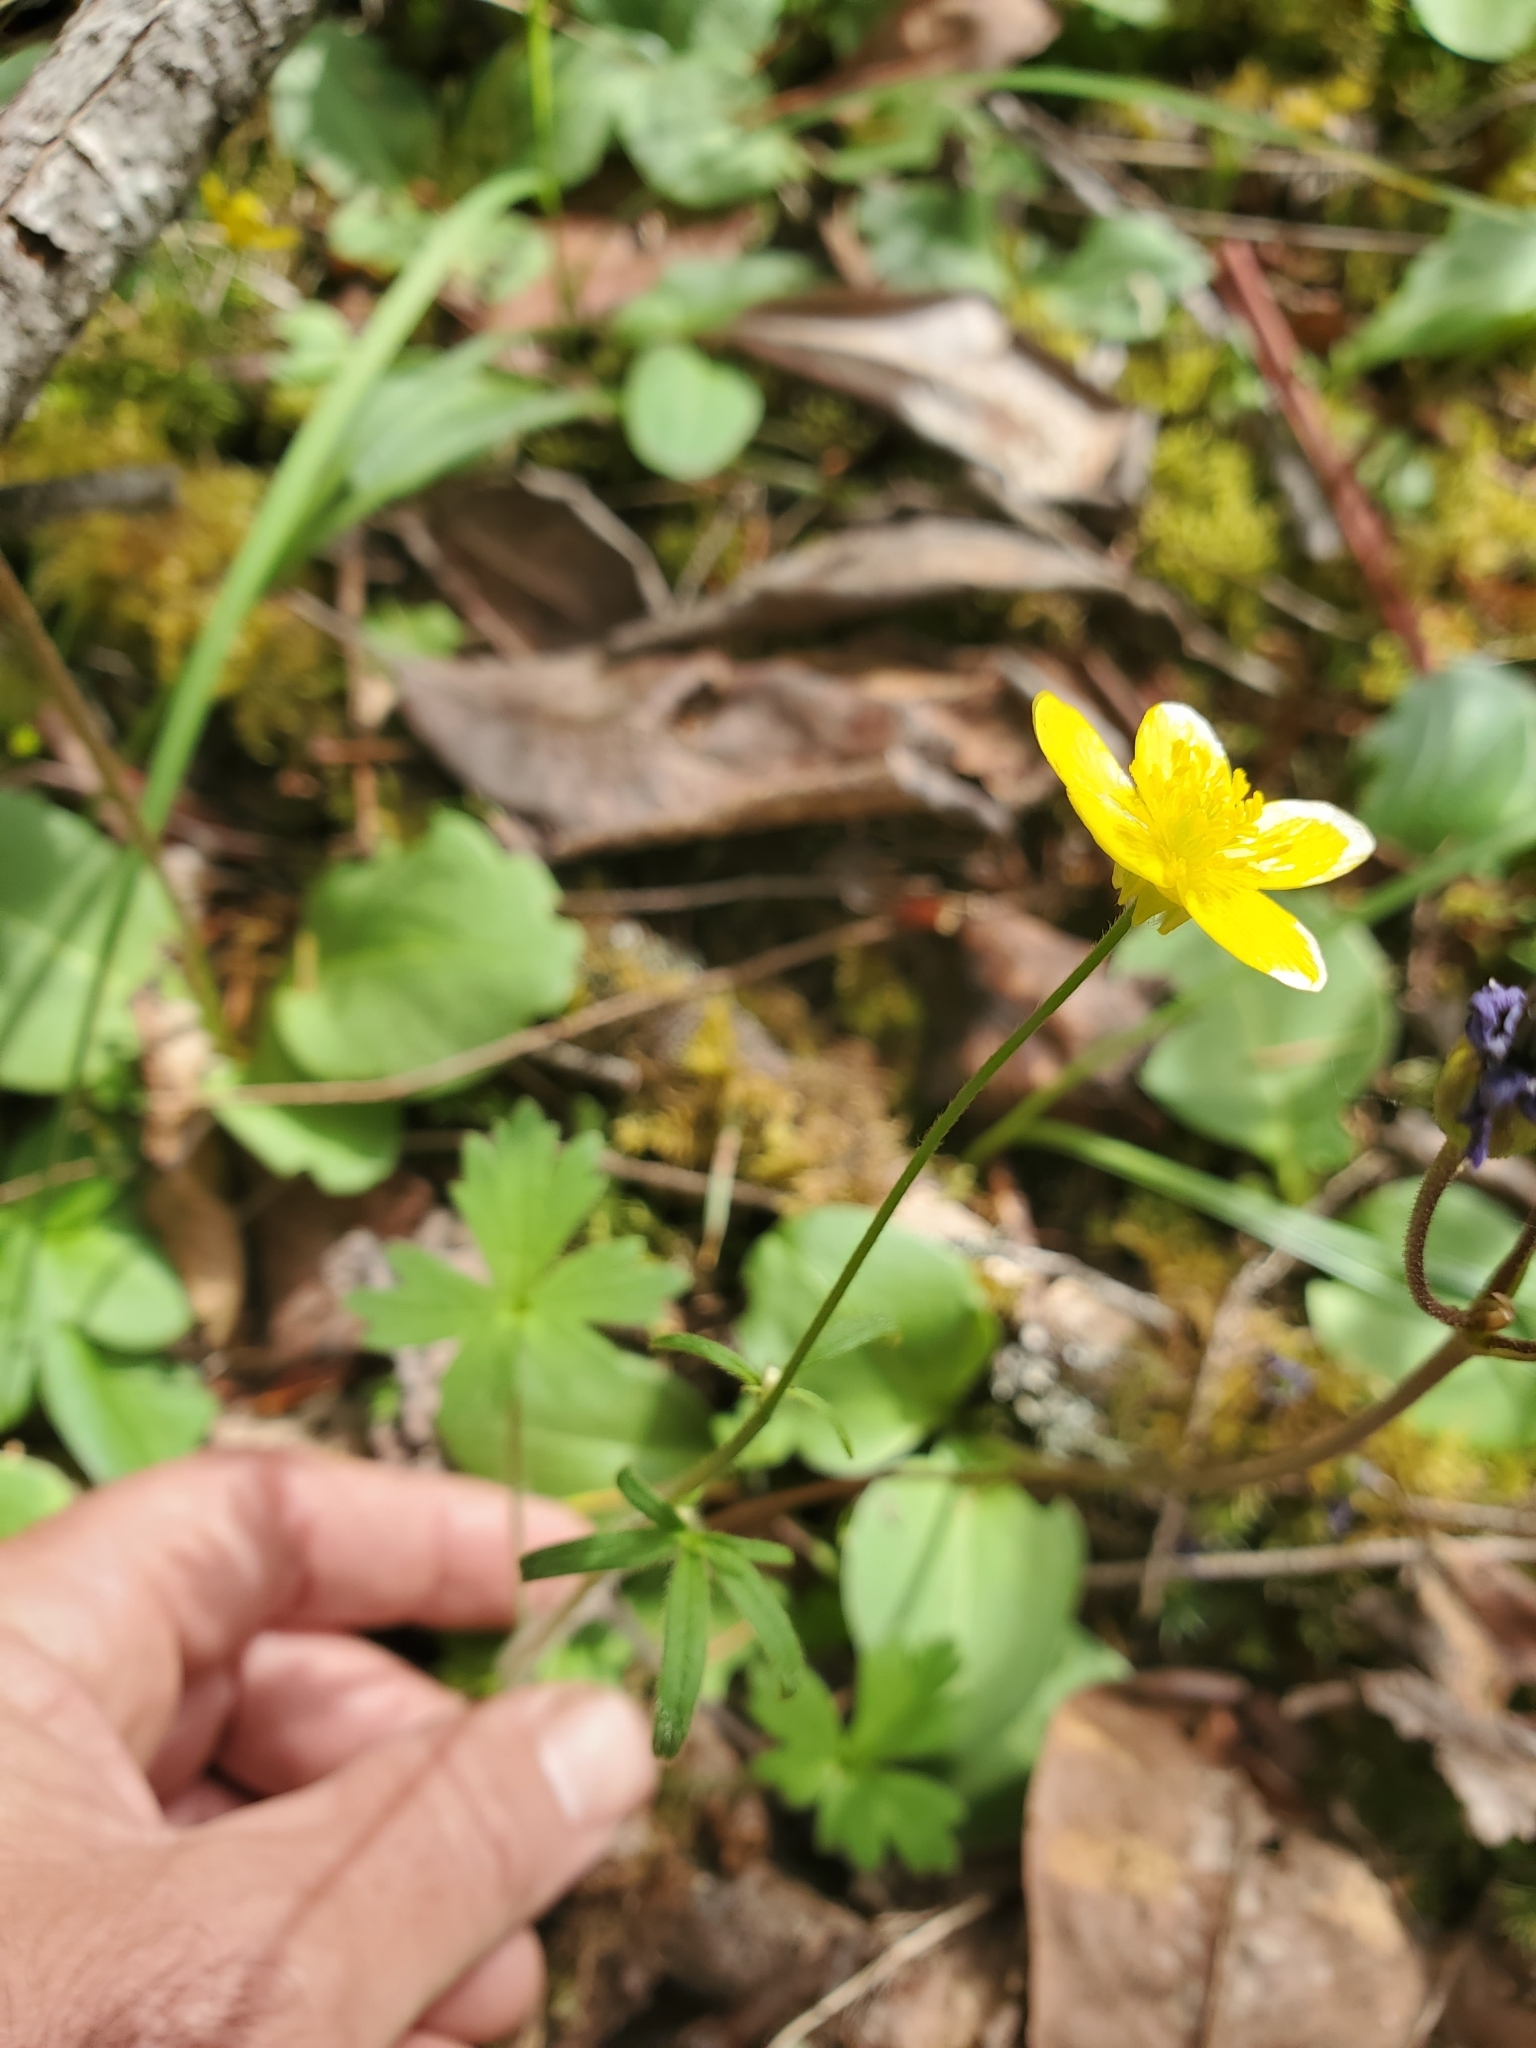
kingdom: Plantae
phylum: Tracheophyta
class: Magnoliopsida
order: Ranunculales
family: Ranunculaceae
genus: Ranunculus
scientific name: Ranunculus occidentalis
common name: Western buttercup
